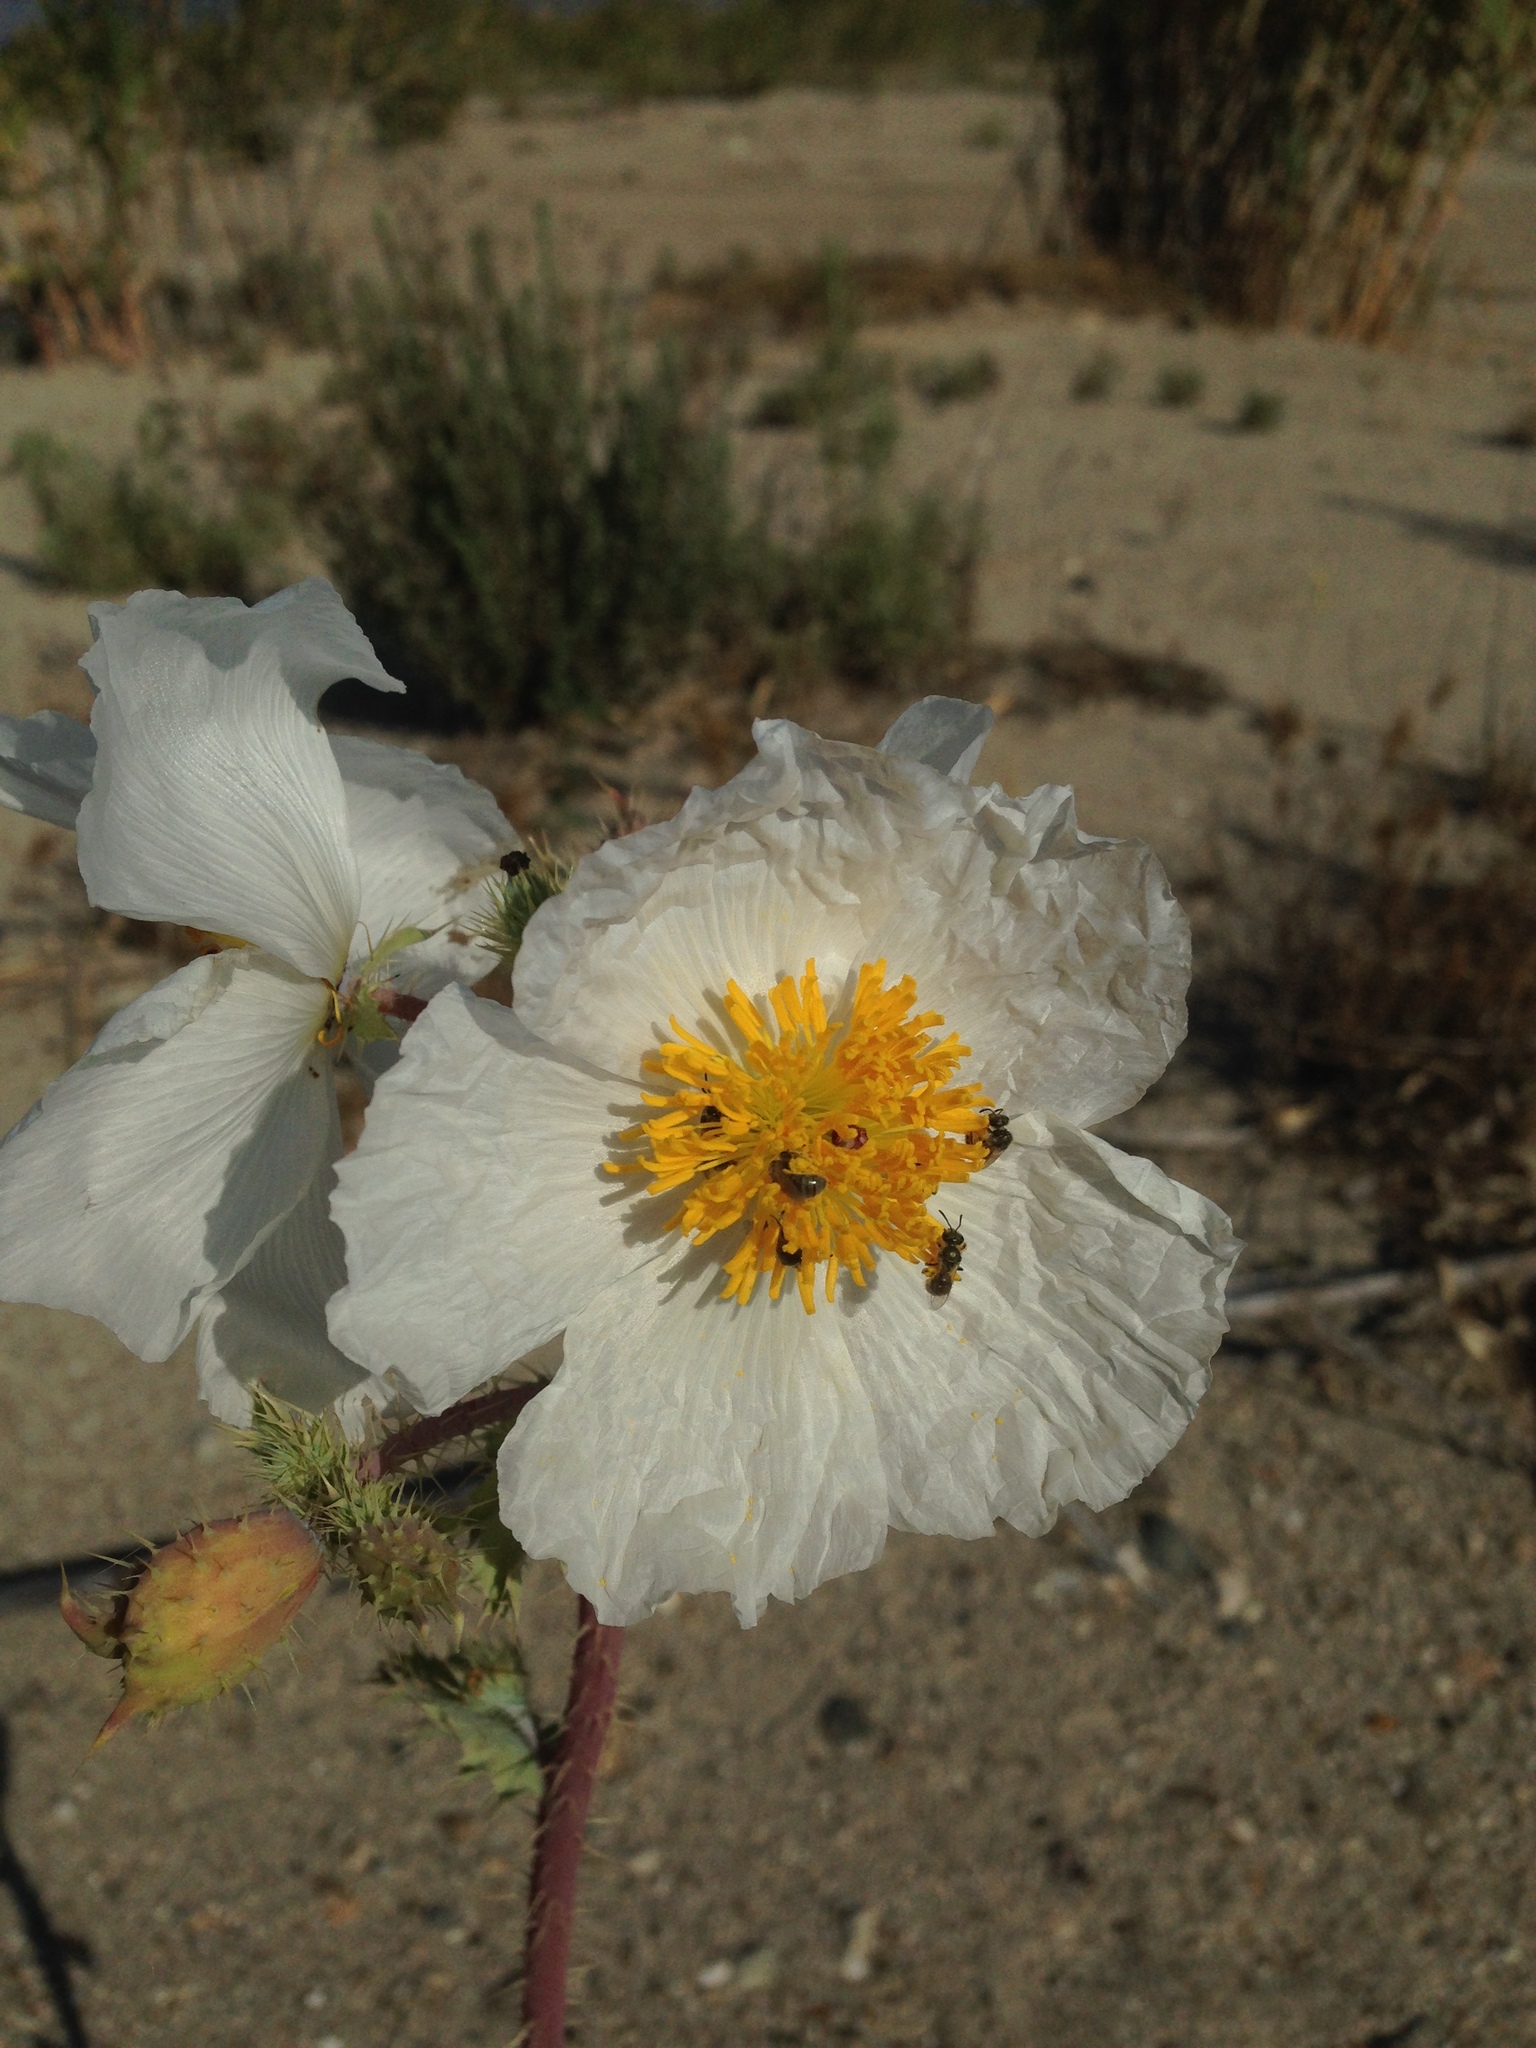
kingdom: Plantae
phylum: Tracheophyta
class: Magnoliopsida
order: Ranunculales
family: Papaveraceae
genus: Argemone
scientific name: Argemone munita
